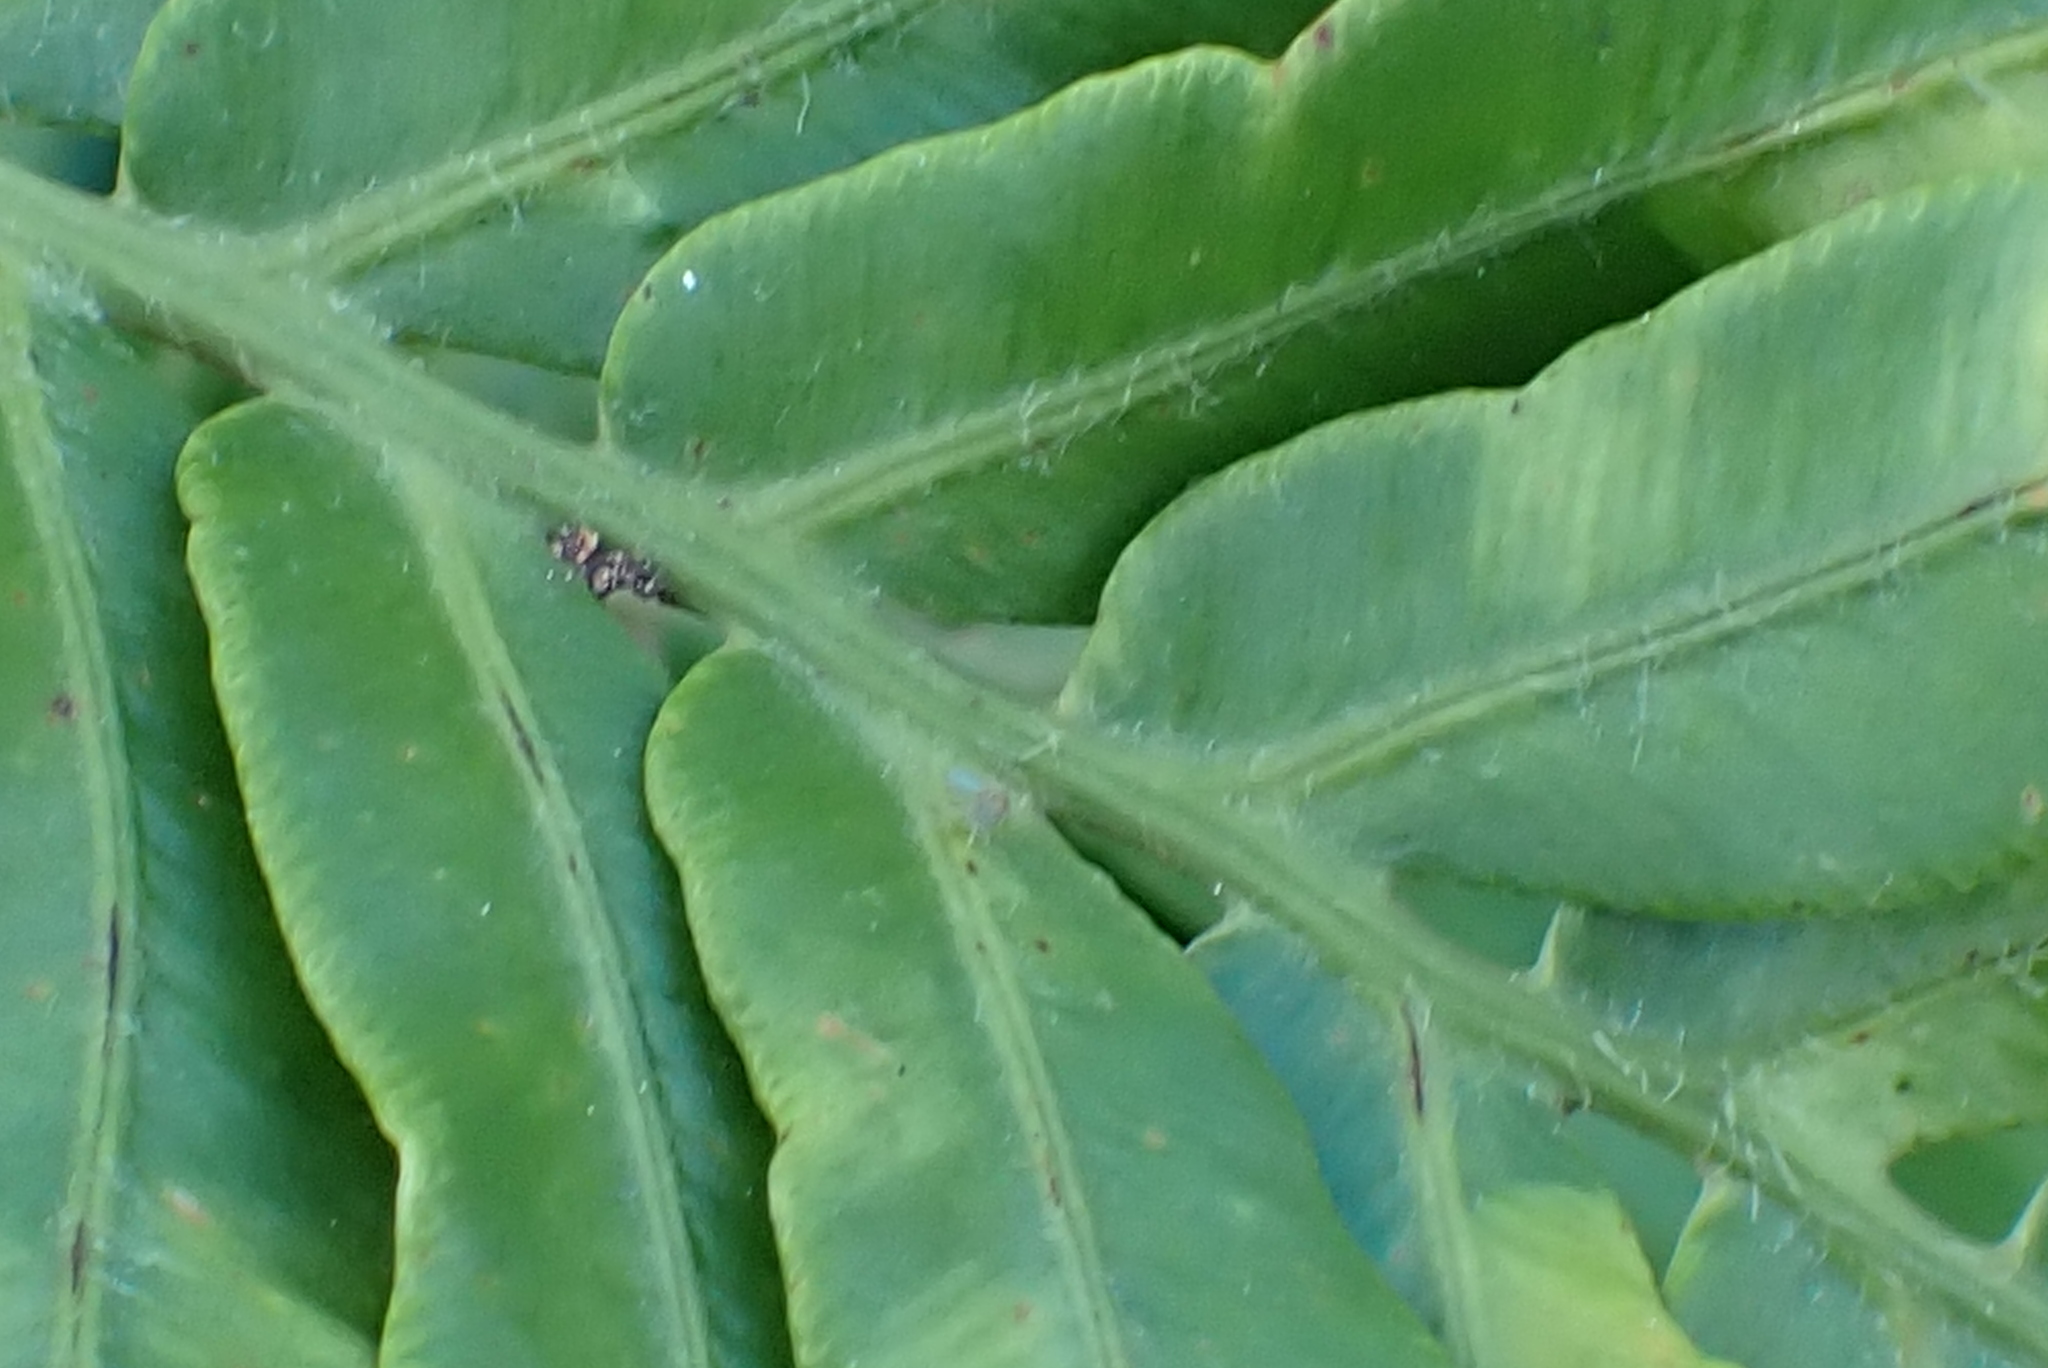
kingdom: Plantae
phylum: Tracheophyta
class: Polypodiopsida
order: Polypodiales
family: Blechnaceae
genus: Lomariocycas
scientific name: Lomariocycas tabularis
